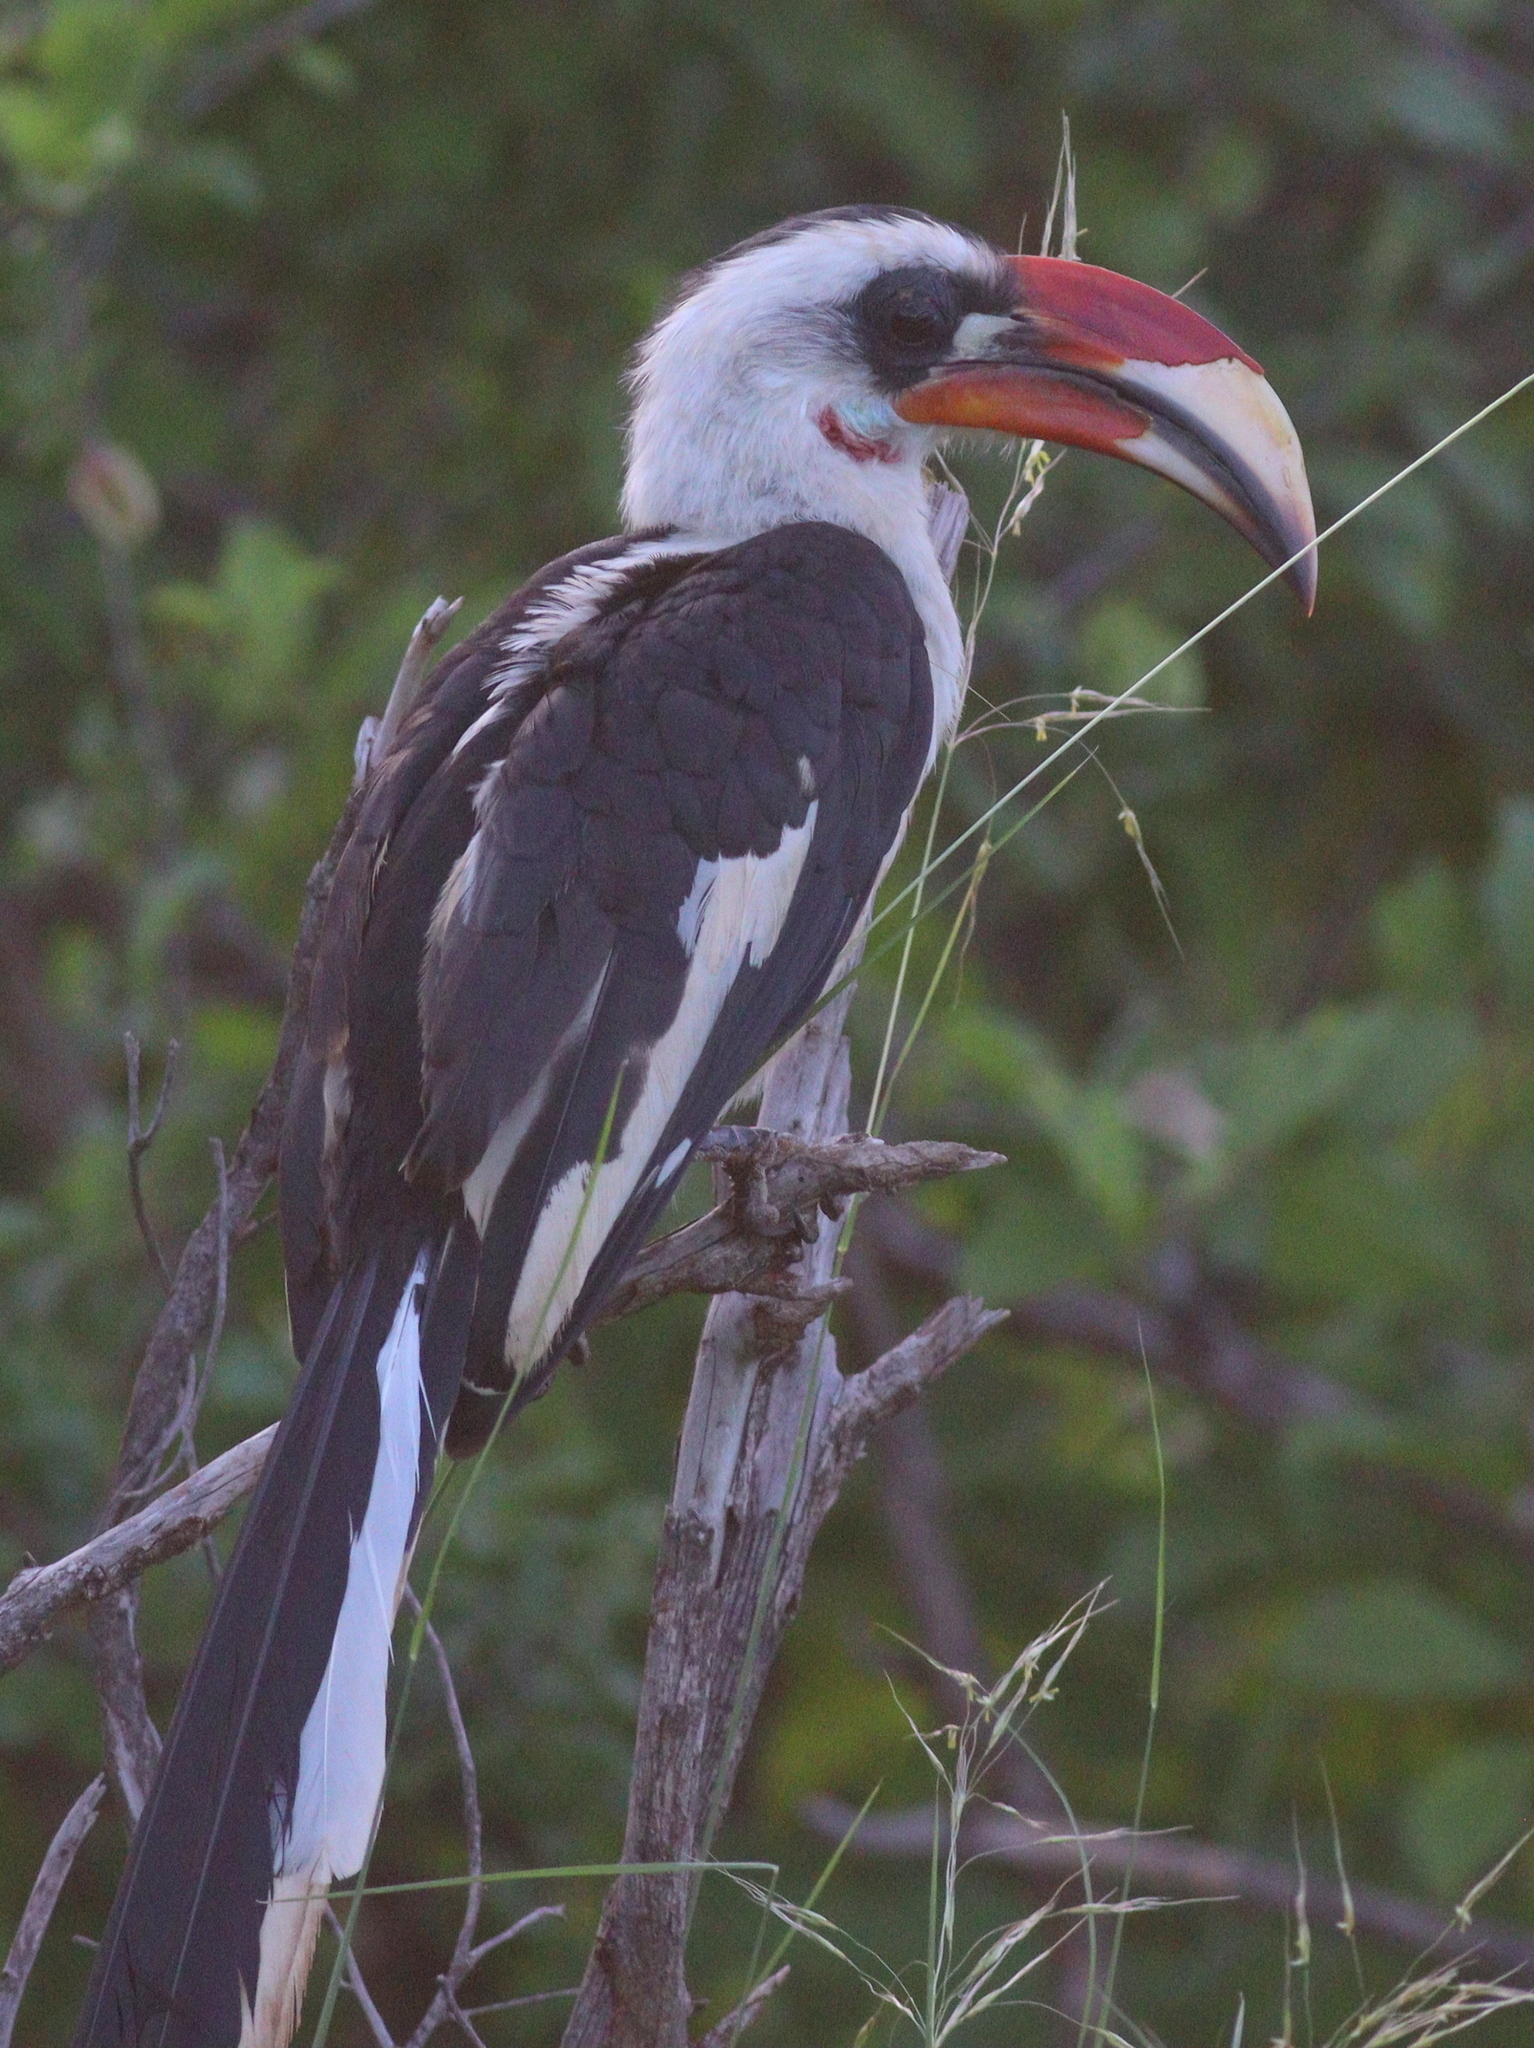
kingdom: Animalia
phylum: Chordata
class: Aves
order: Bucerotiformes
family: Bucerotidae
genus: Tockus
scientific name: Tockus deckeni
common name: Von der decken's hornbill
